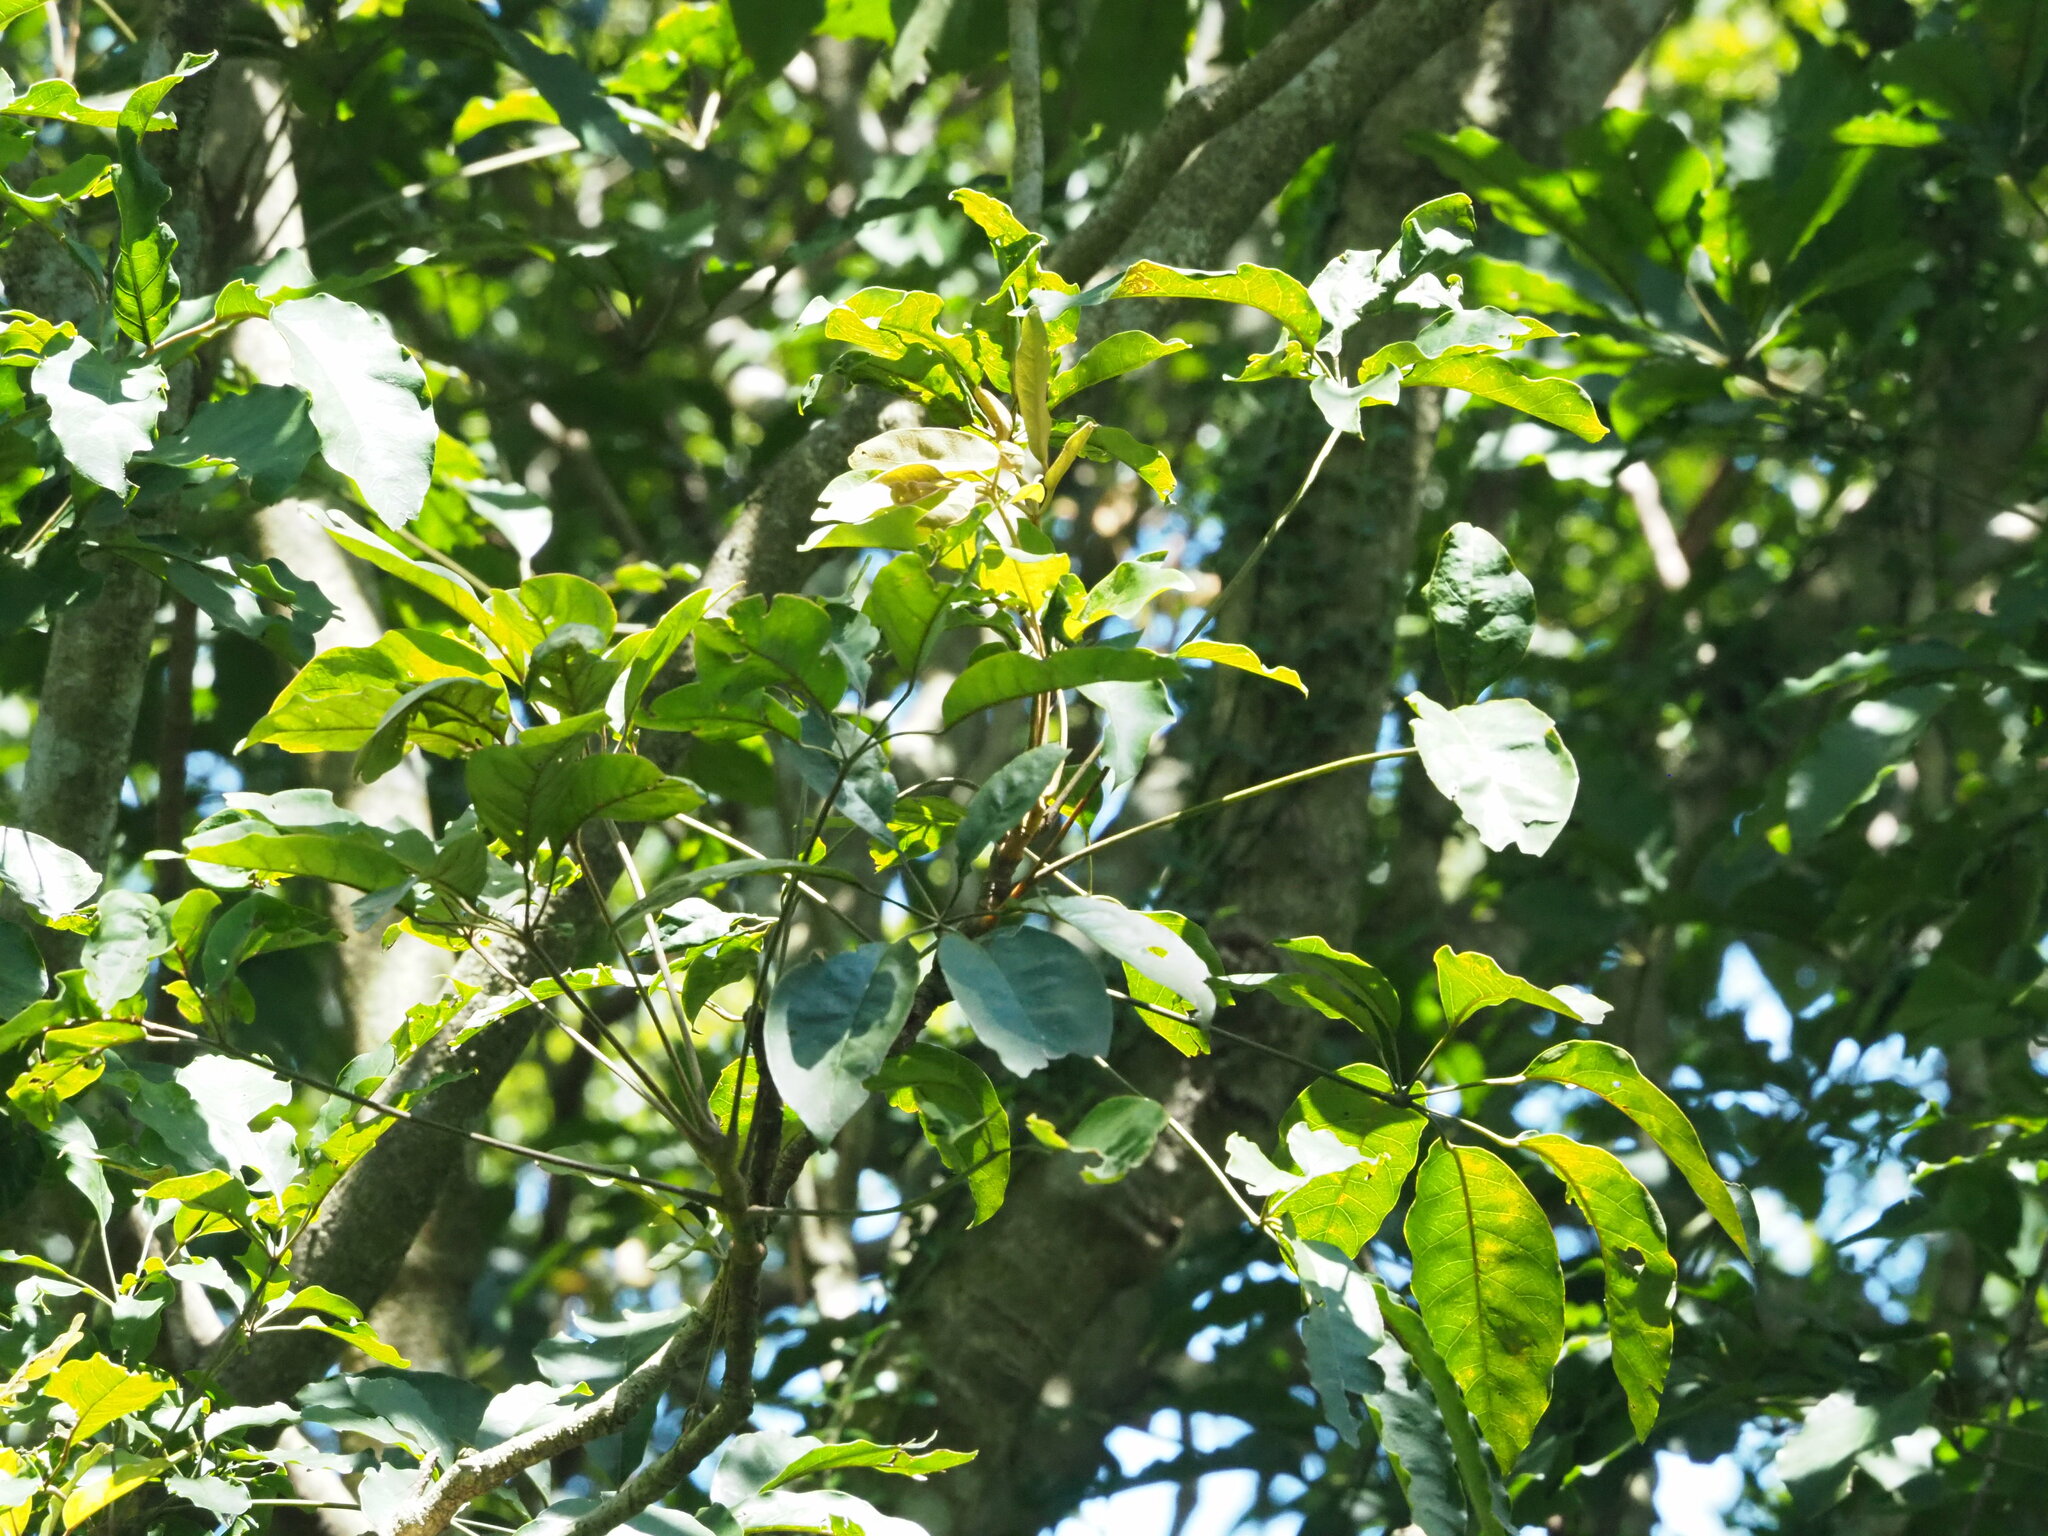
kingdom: Plantae
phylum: Tracheophyta
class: Magnoliopsida
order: Apiales
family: Araliaceae
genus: Heptapleurum
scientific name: Heptapleurum heptaphyllum
